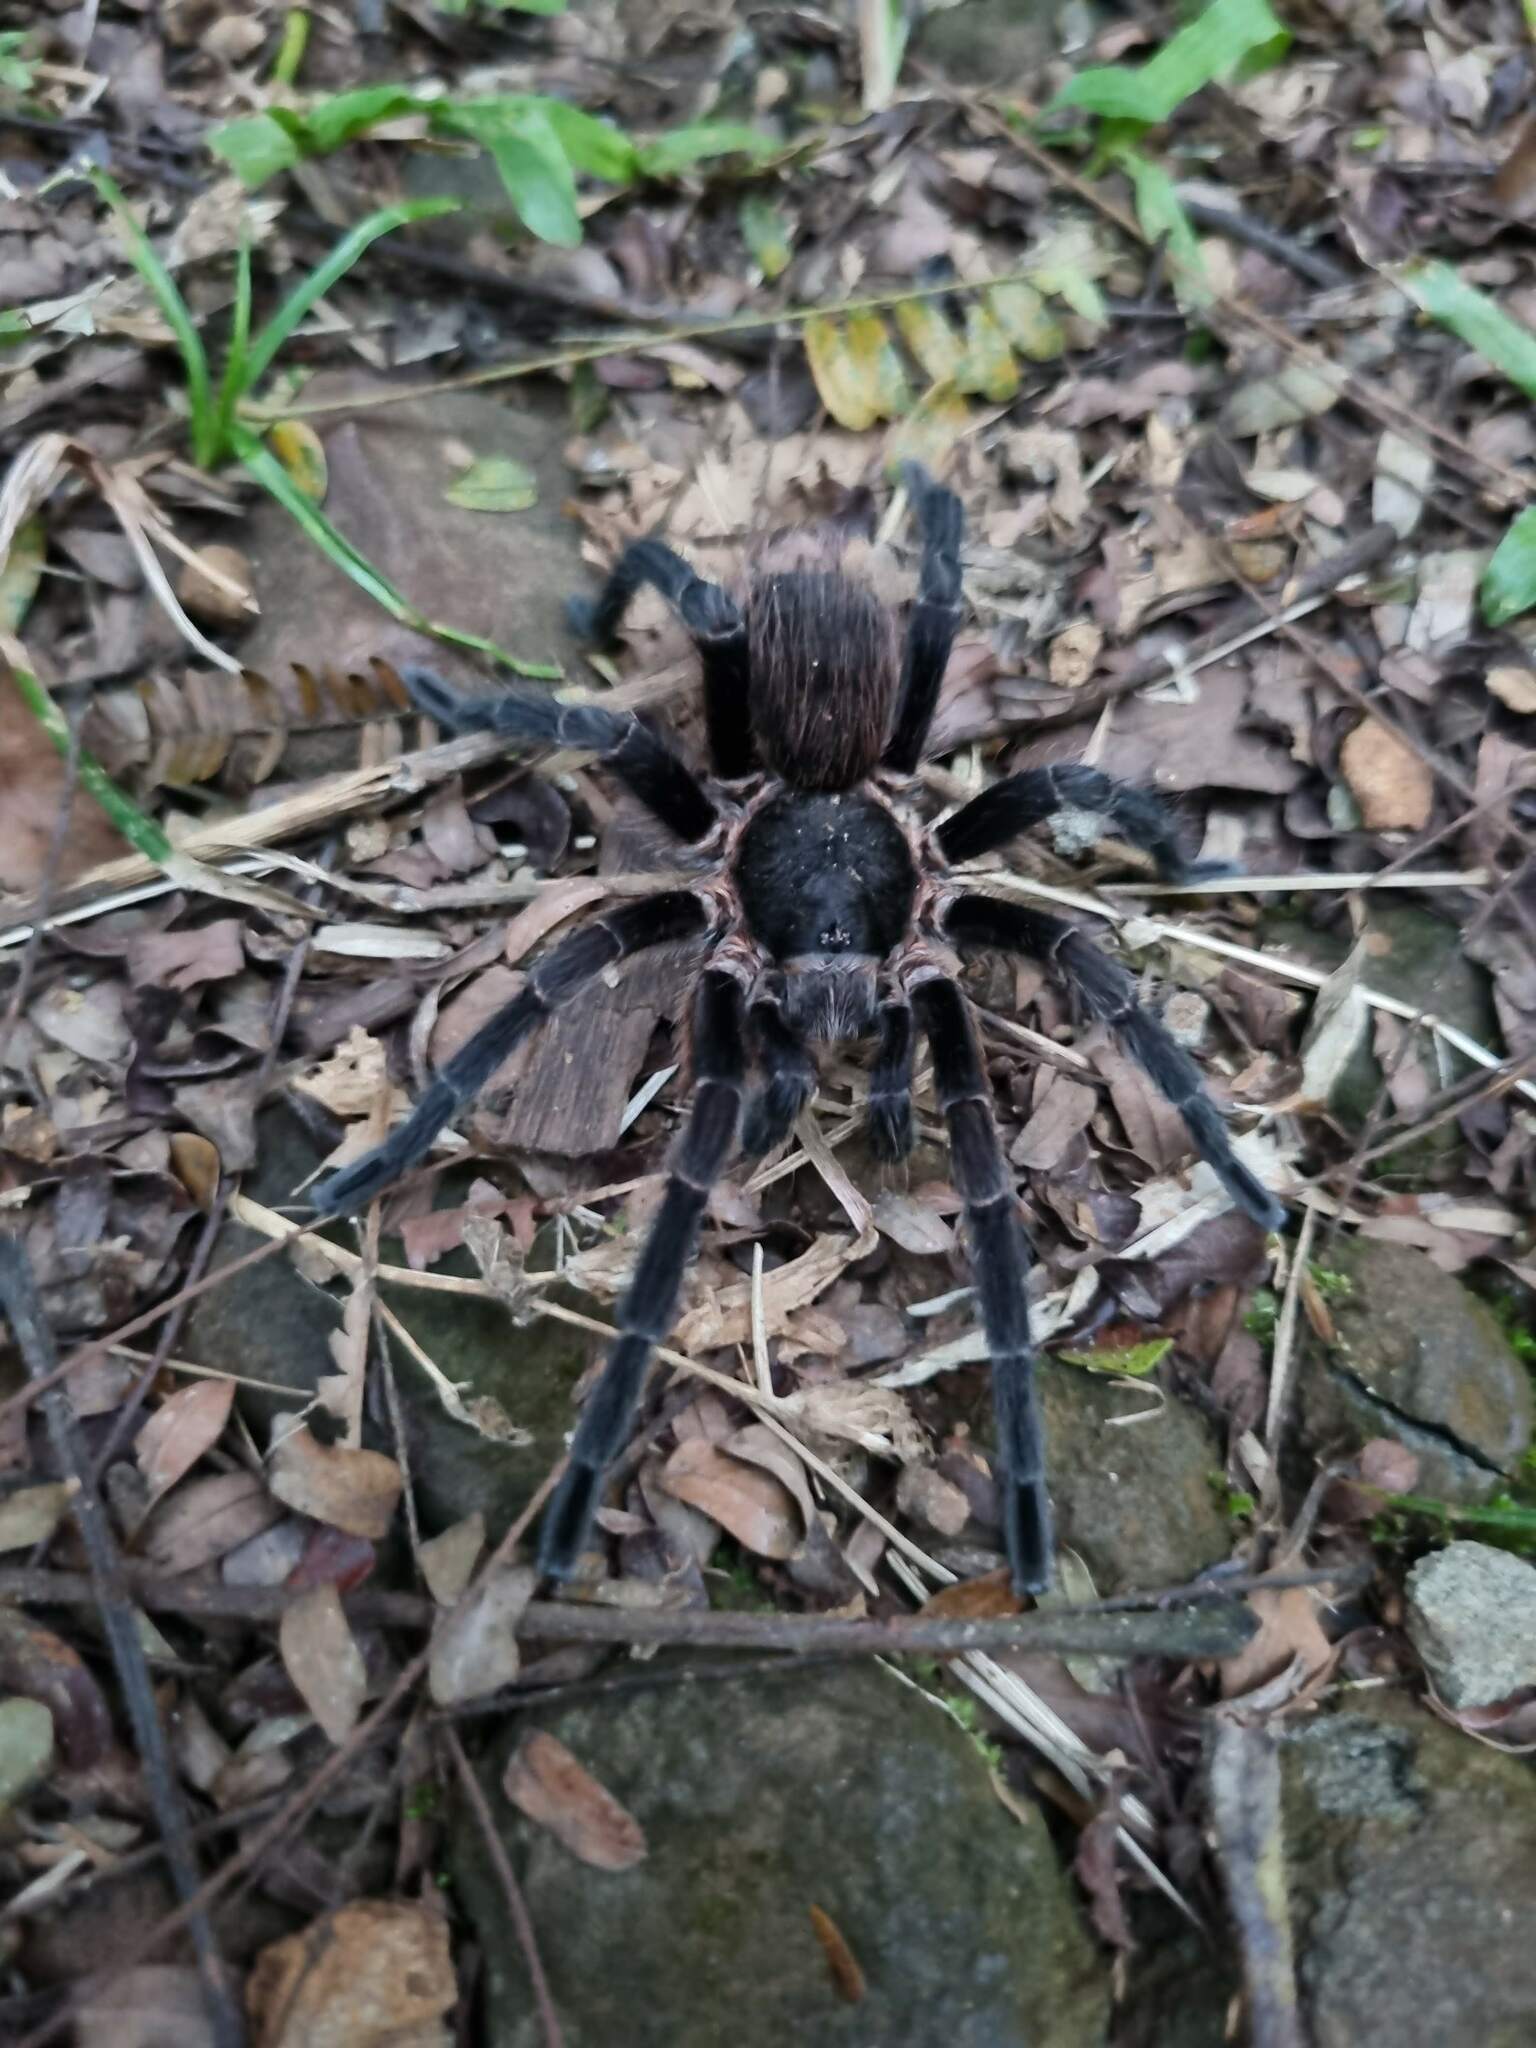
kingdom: Animalia
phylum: Arthropoda
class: Arachnida
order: Araneae
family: Theraphosidae
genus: Pterinopelma
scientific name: Pterinopelma longisternale
